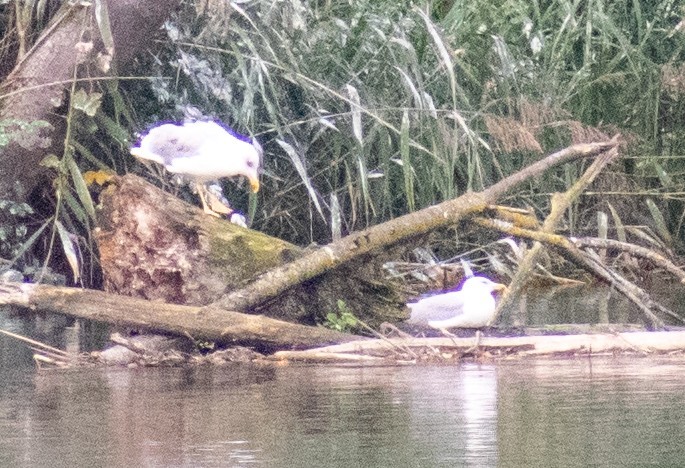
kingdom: Animalia
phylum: Chordata
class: Aves
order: Charadriiformes
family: Laridae
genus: Larus
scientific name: Larus argentatus
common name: Herring gull
